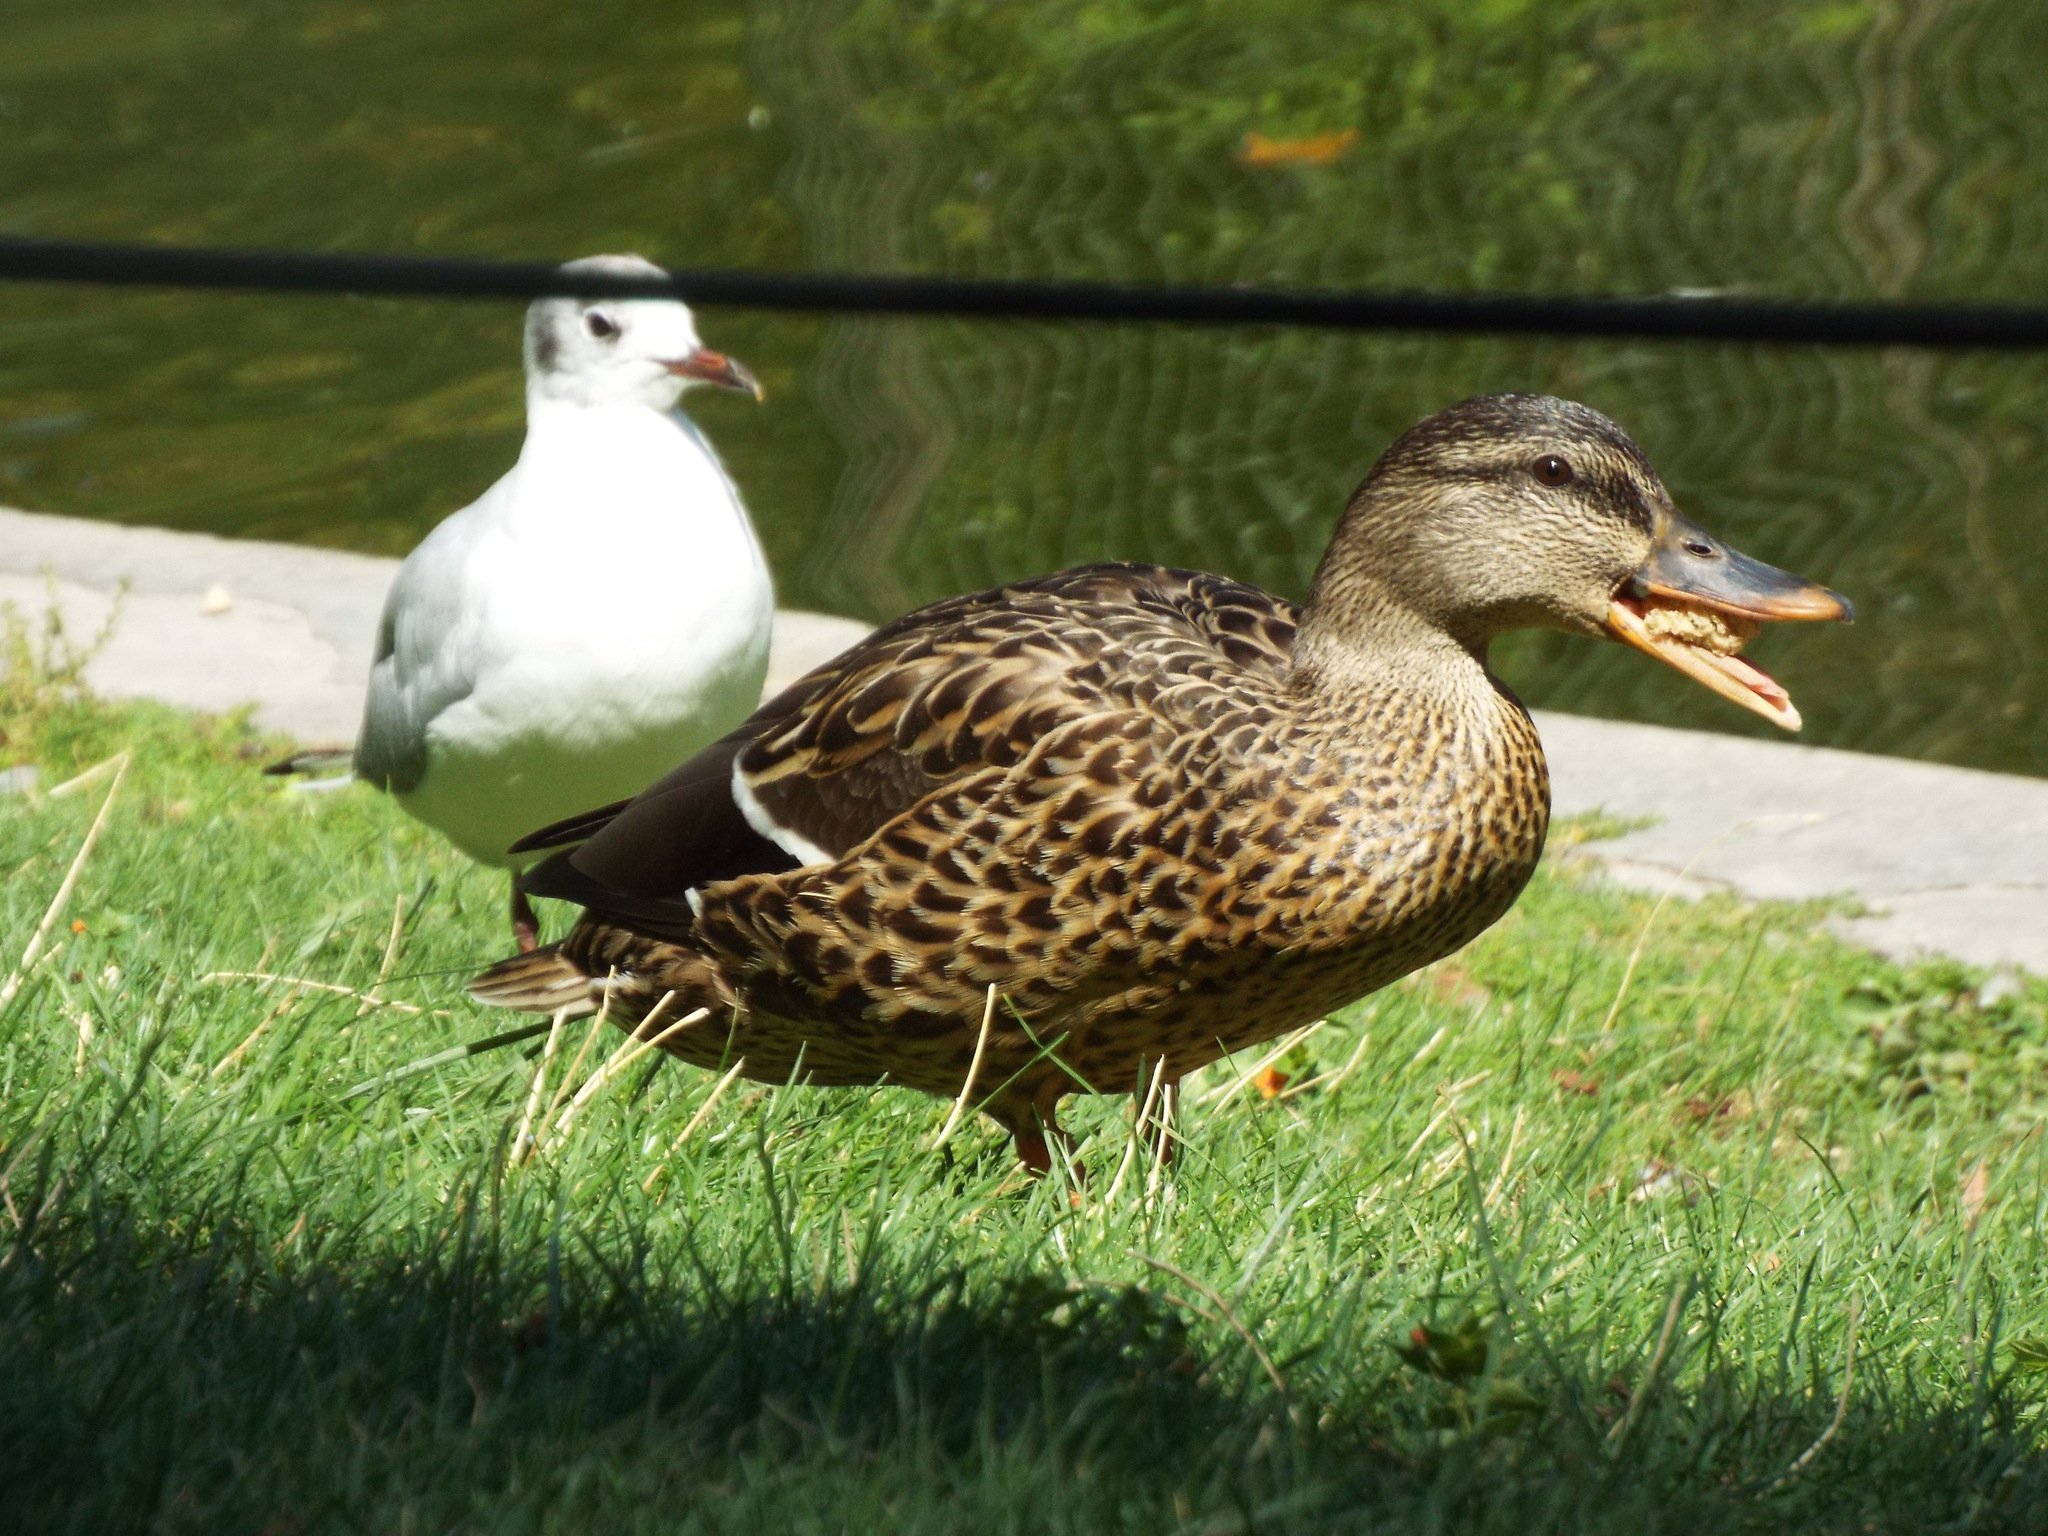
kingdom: Animalia
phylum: Chordata
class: Aves
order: Charadriiformes
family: Laridae
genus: Chroicocephalus
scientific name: Chroicocephalus ridibundus
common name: Black-headed gull
